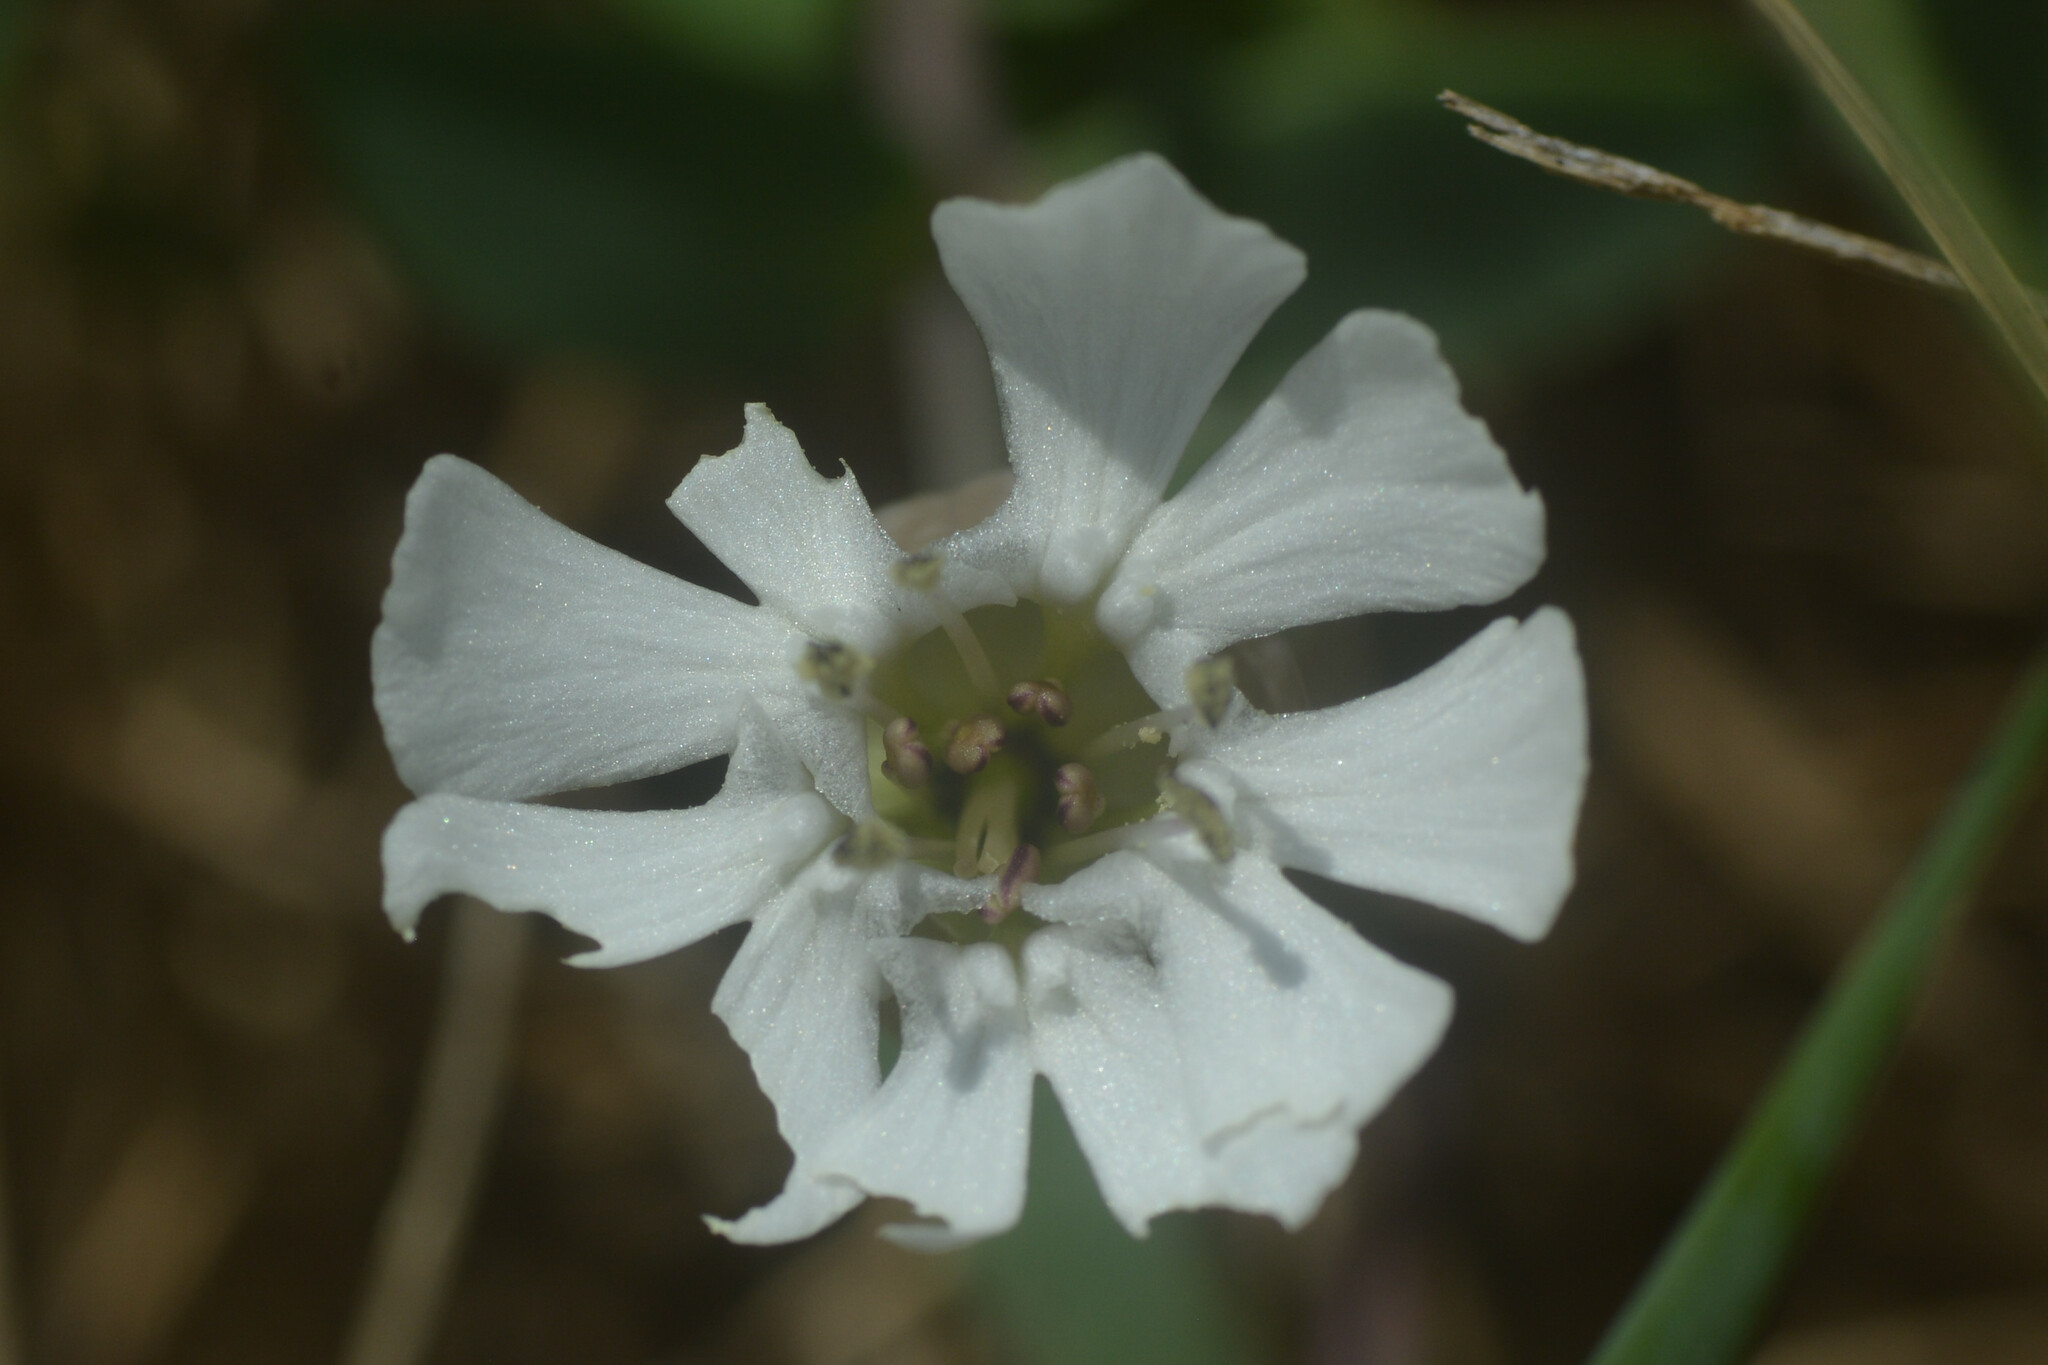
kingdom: Plantae
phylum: Tracheophyta
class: Magnoliopsida
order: Caryophyllales
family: Caryophyllaceae
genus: Silene
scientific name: Silene uniflora
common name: Sea campion
